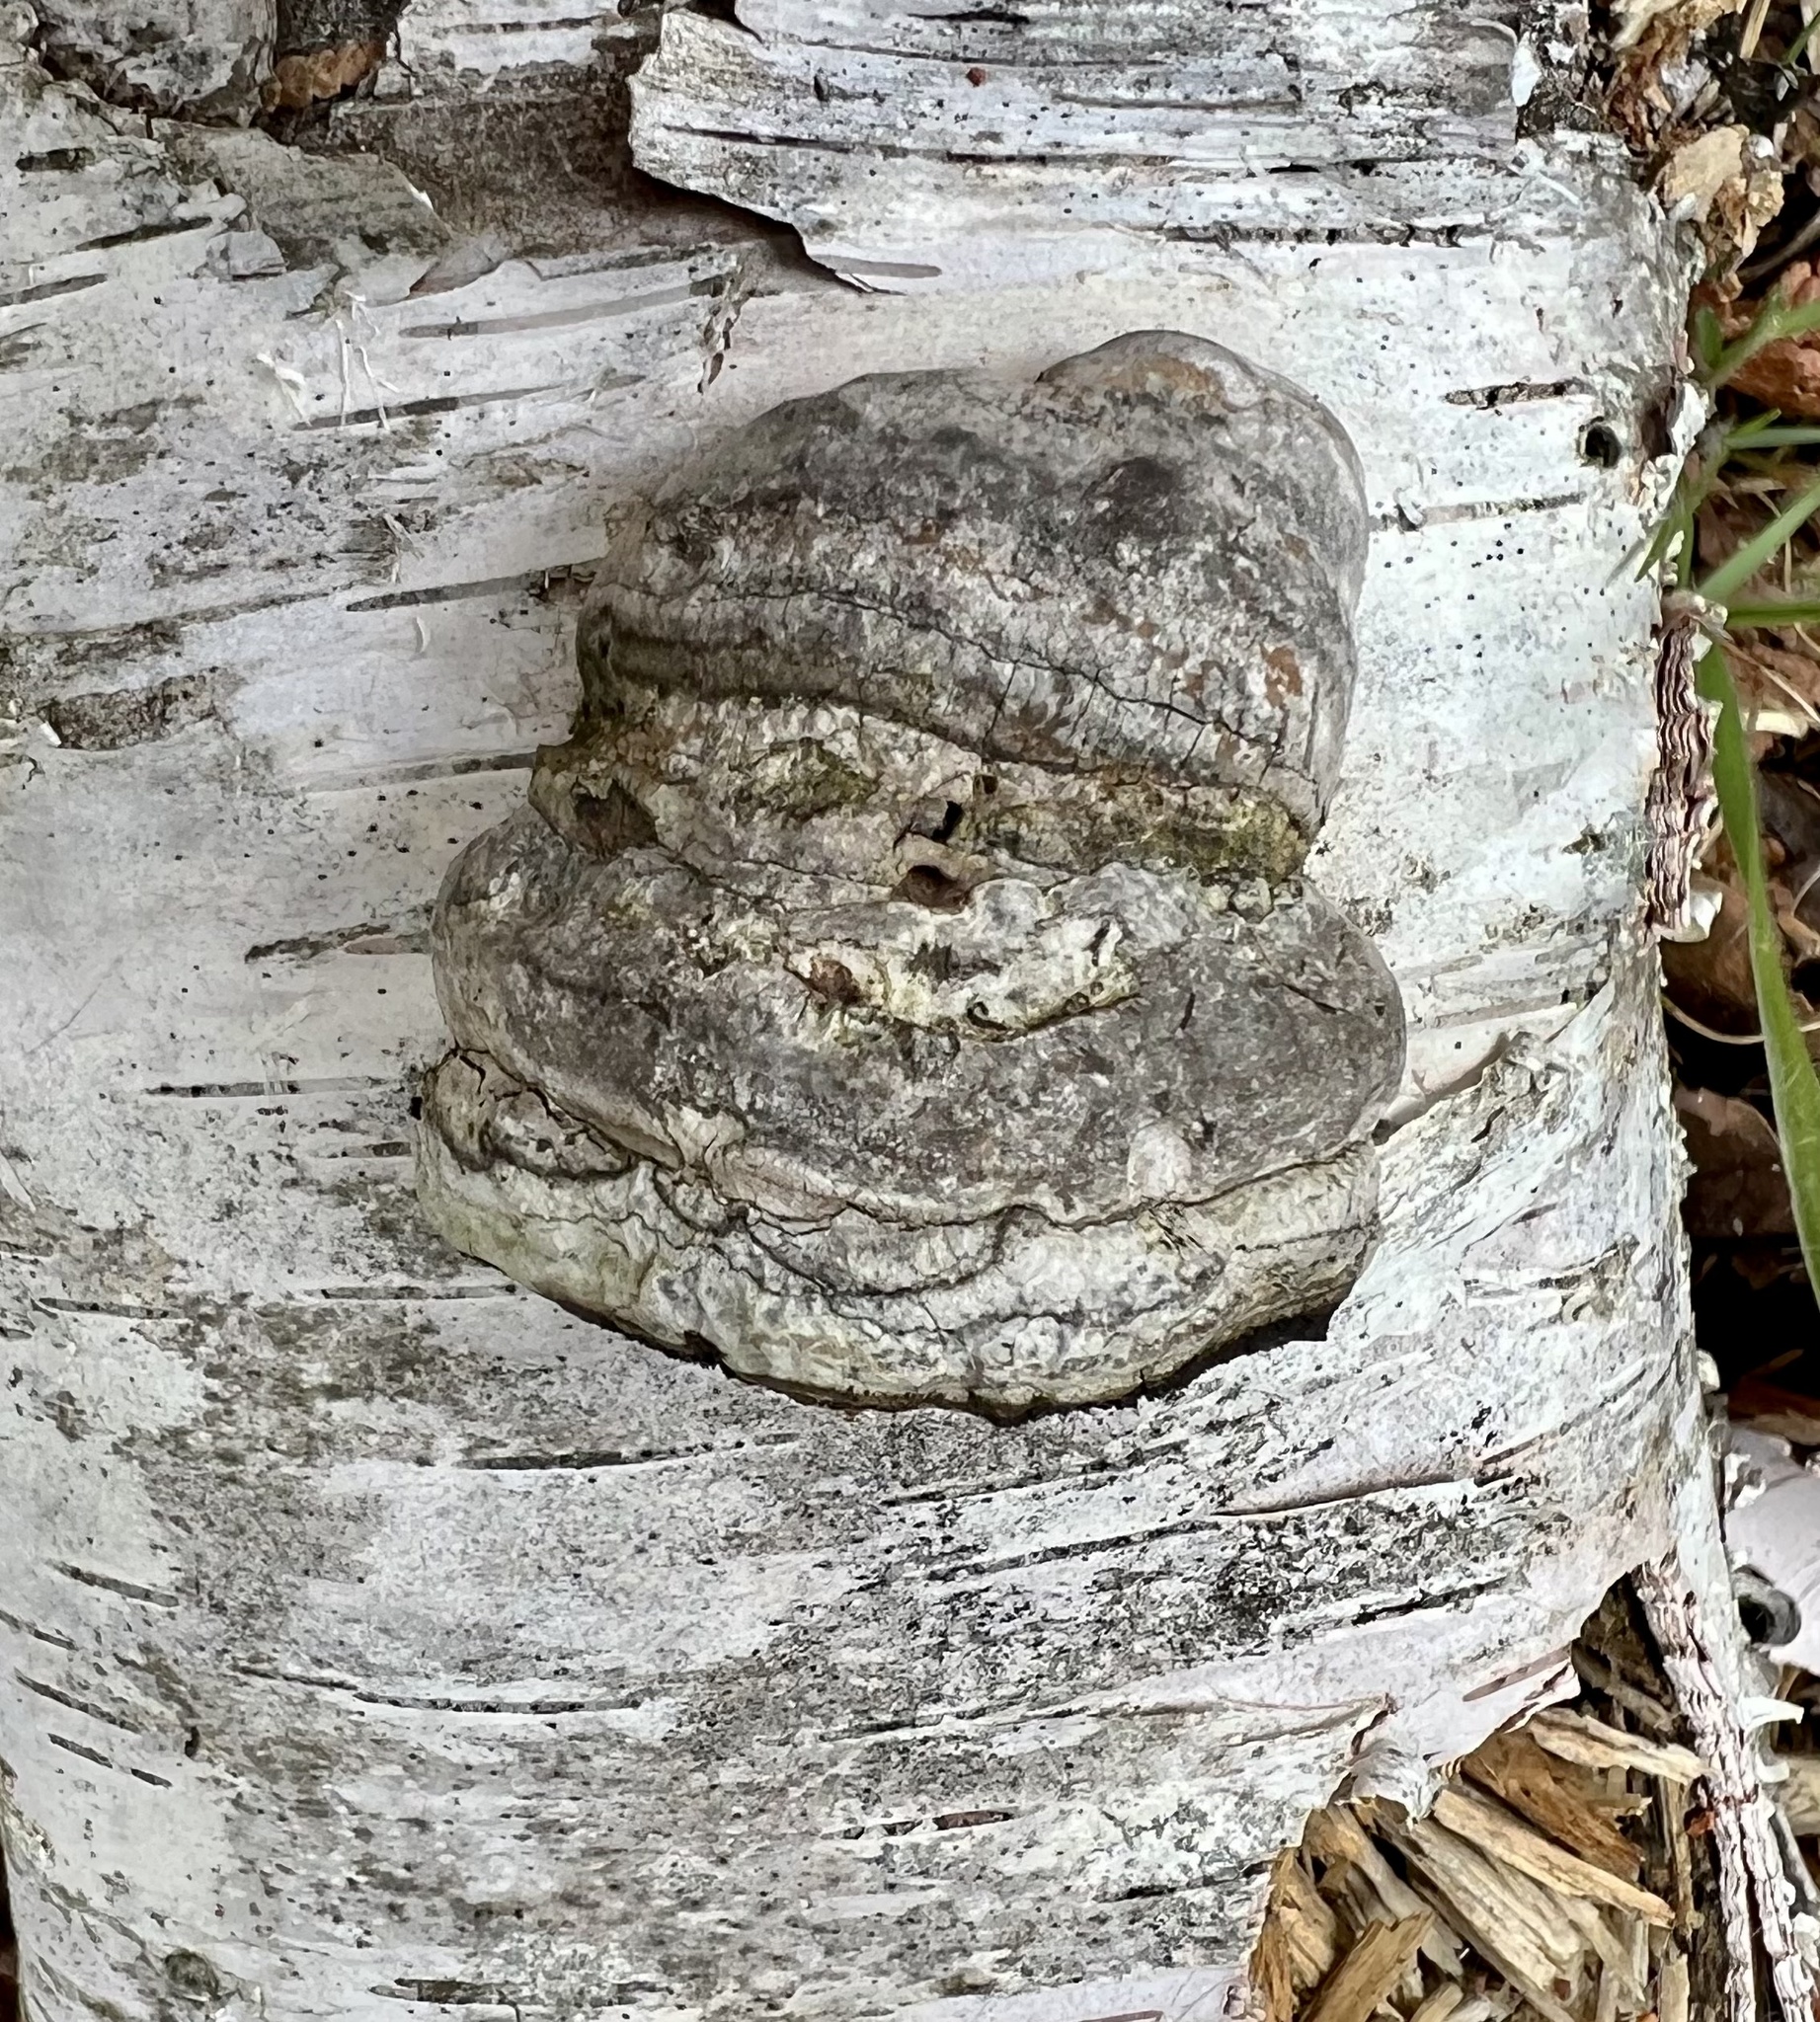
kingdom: Fungi
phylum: Basidiomycota
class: Agaricomycetes
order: Polyporales
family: Polyporaceae
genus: Fomes
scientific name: Fomes fomentarius
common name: Hoof fungus
